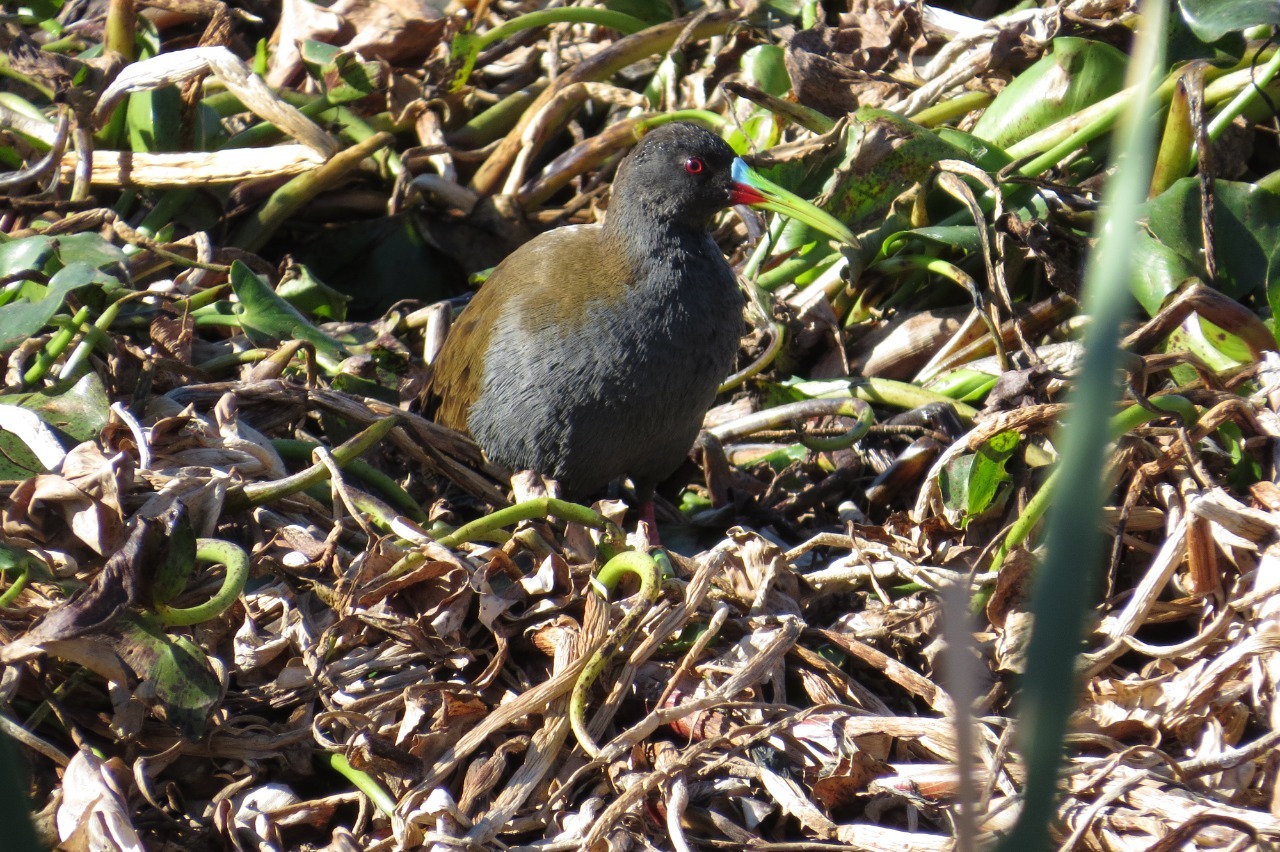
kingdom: Animalia
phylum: Chordata
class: Aves
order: Gruiformes
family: Rallidae
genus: Pardirallus
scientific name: Pardirallus sanguinolentus
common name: Plumbeous rail
